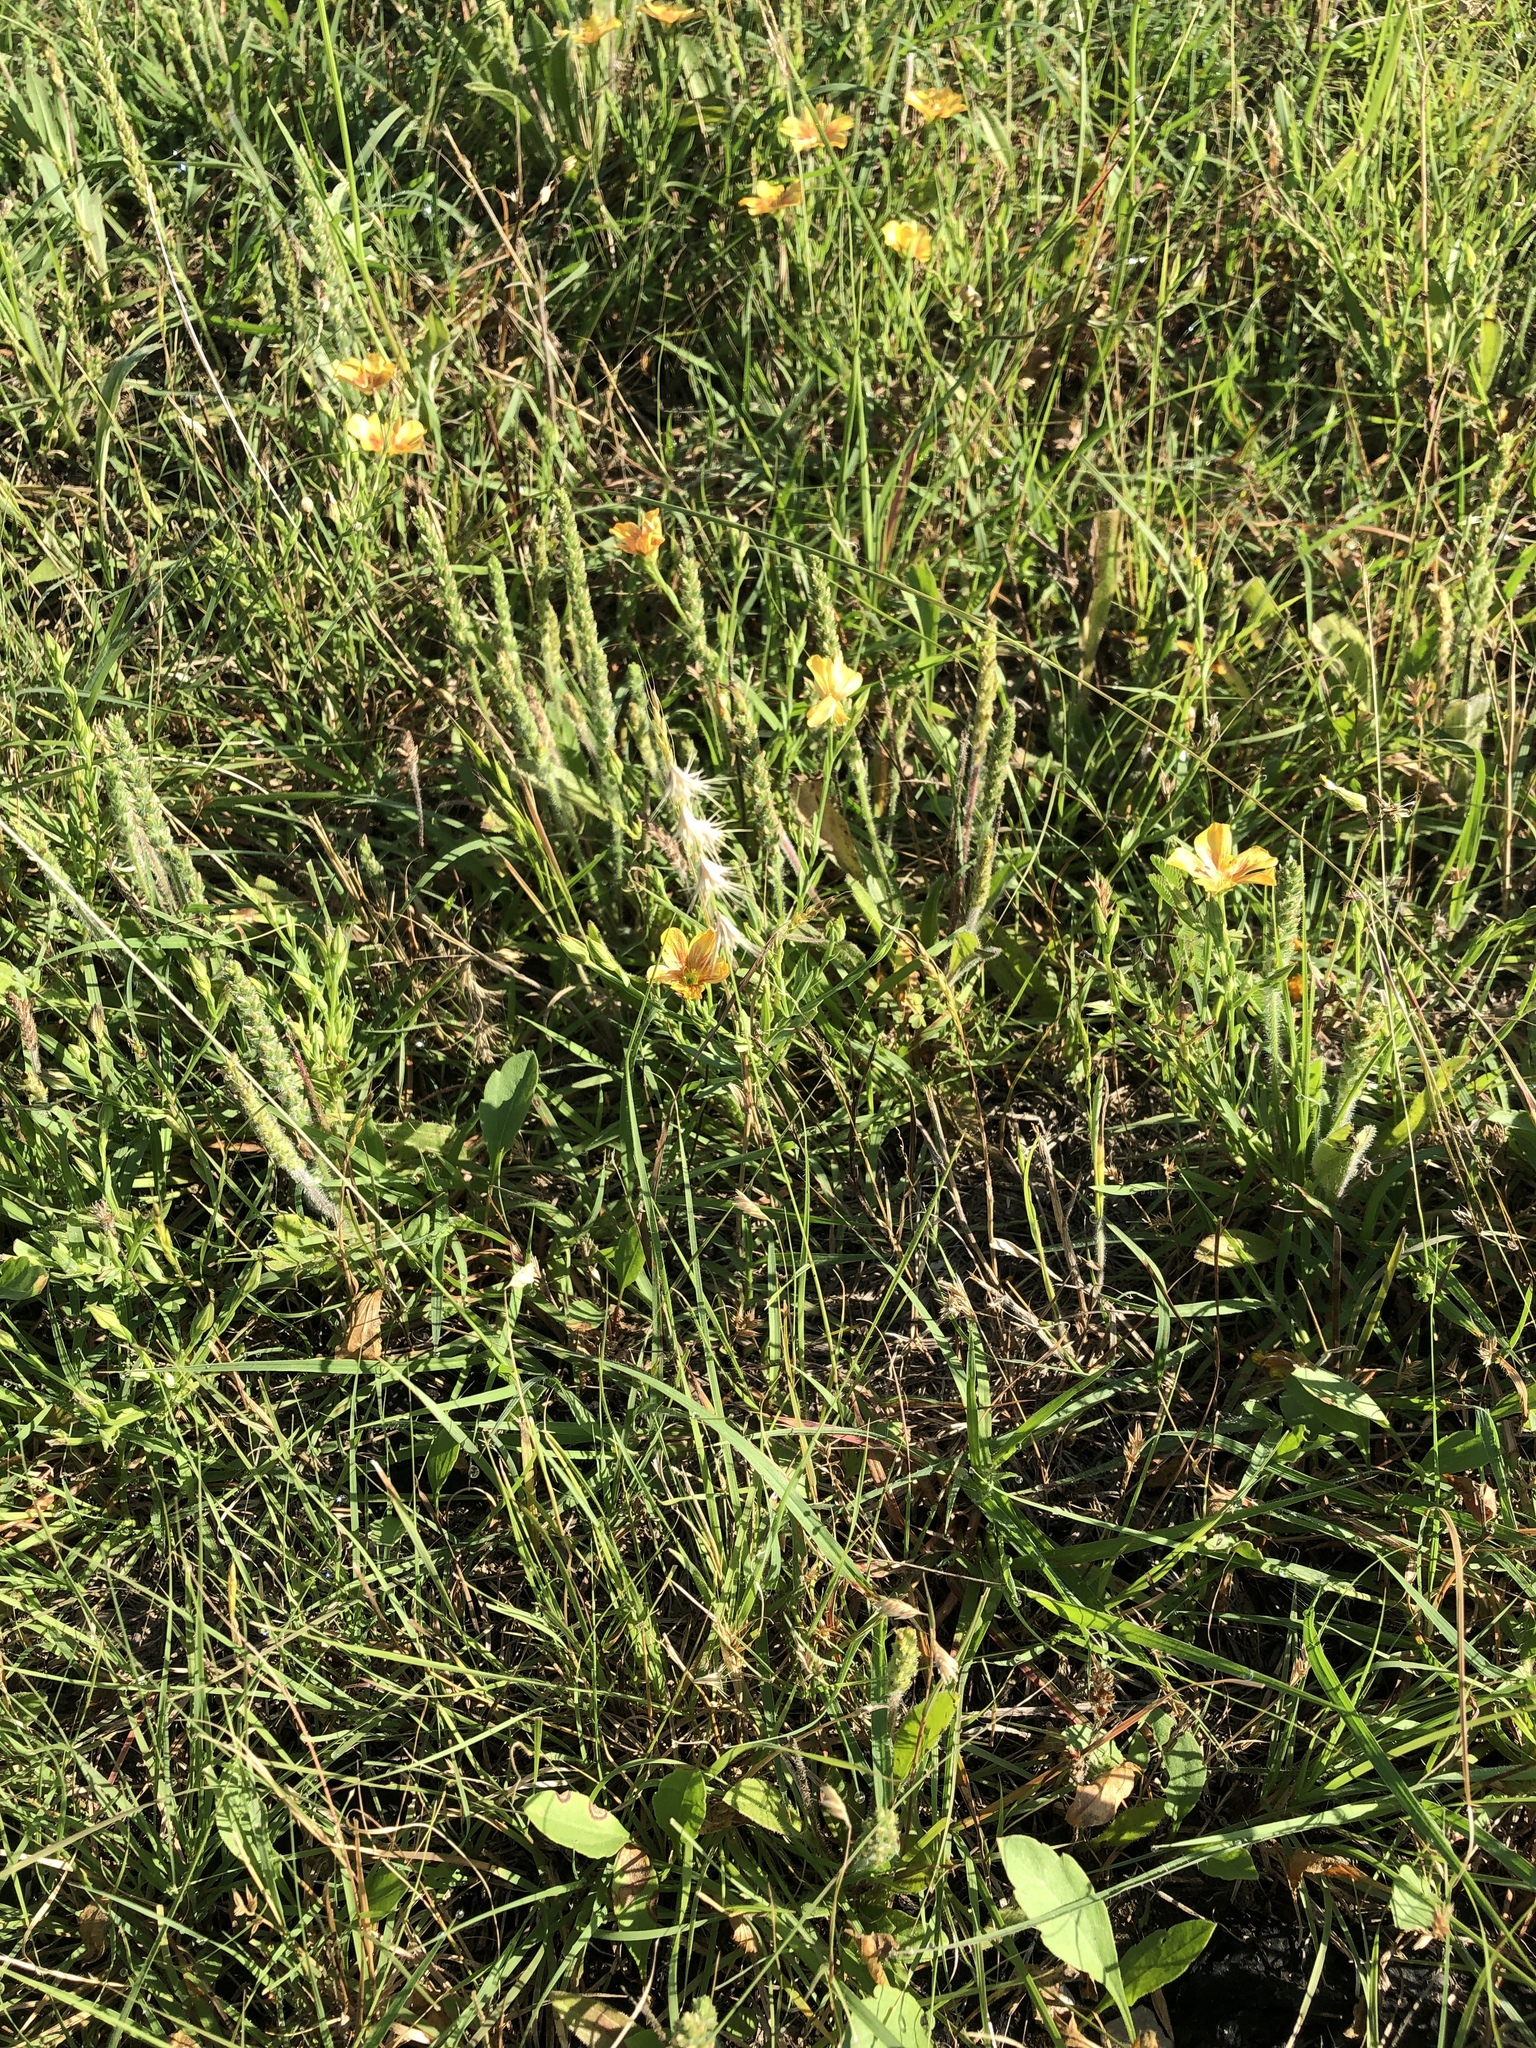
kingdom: Plantae
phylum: Tracheophyta
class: Liliopsida
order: Poales
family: Poaceae
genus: Bouteloua
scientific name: Bouteloua rigidiseta
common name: Texas grama
